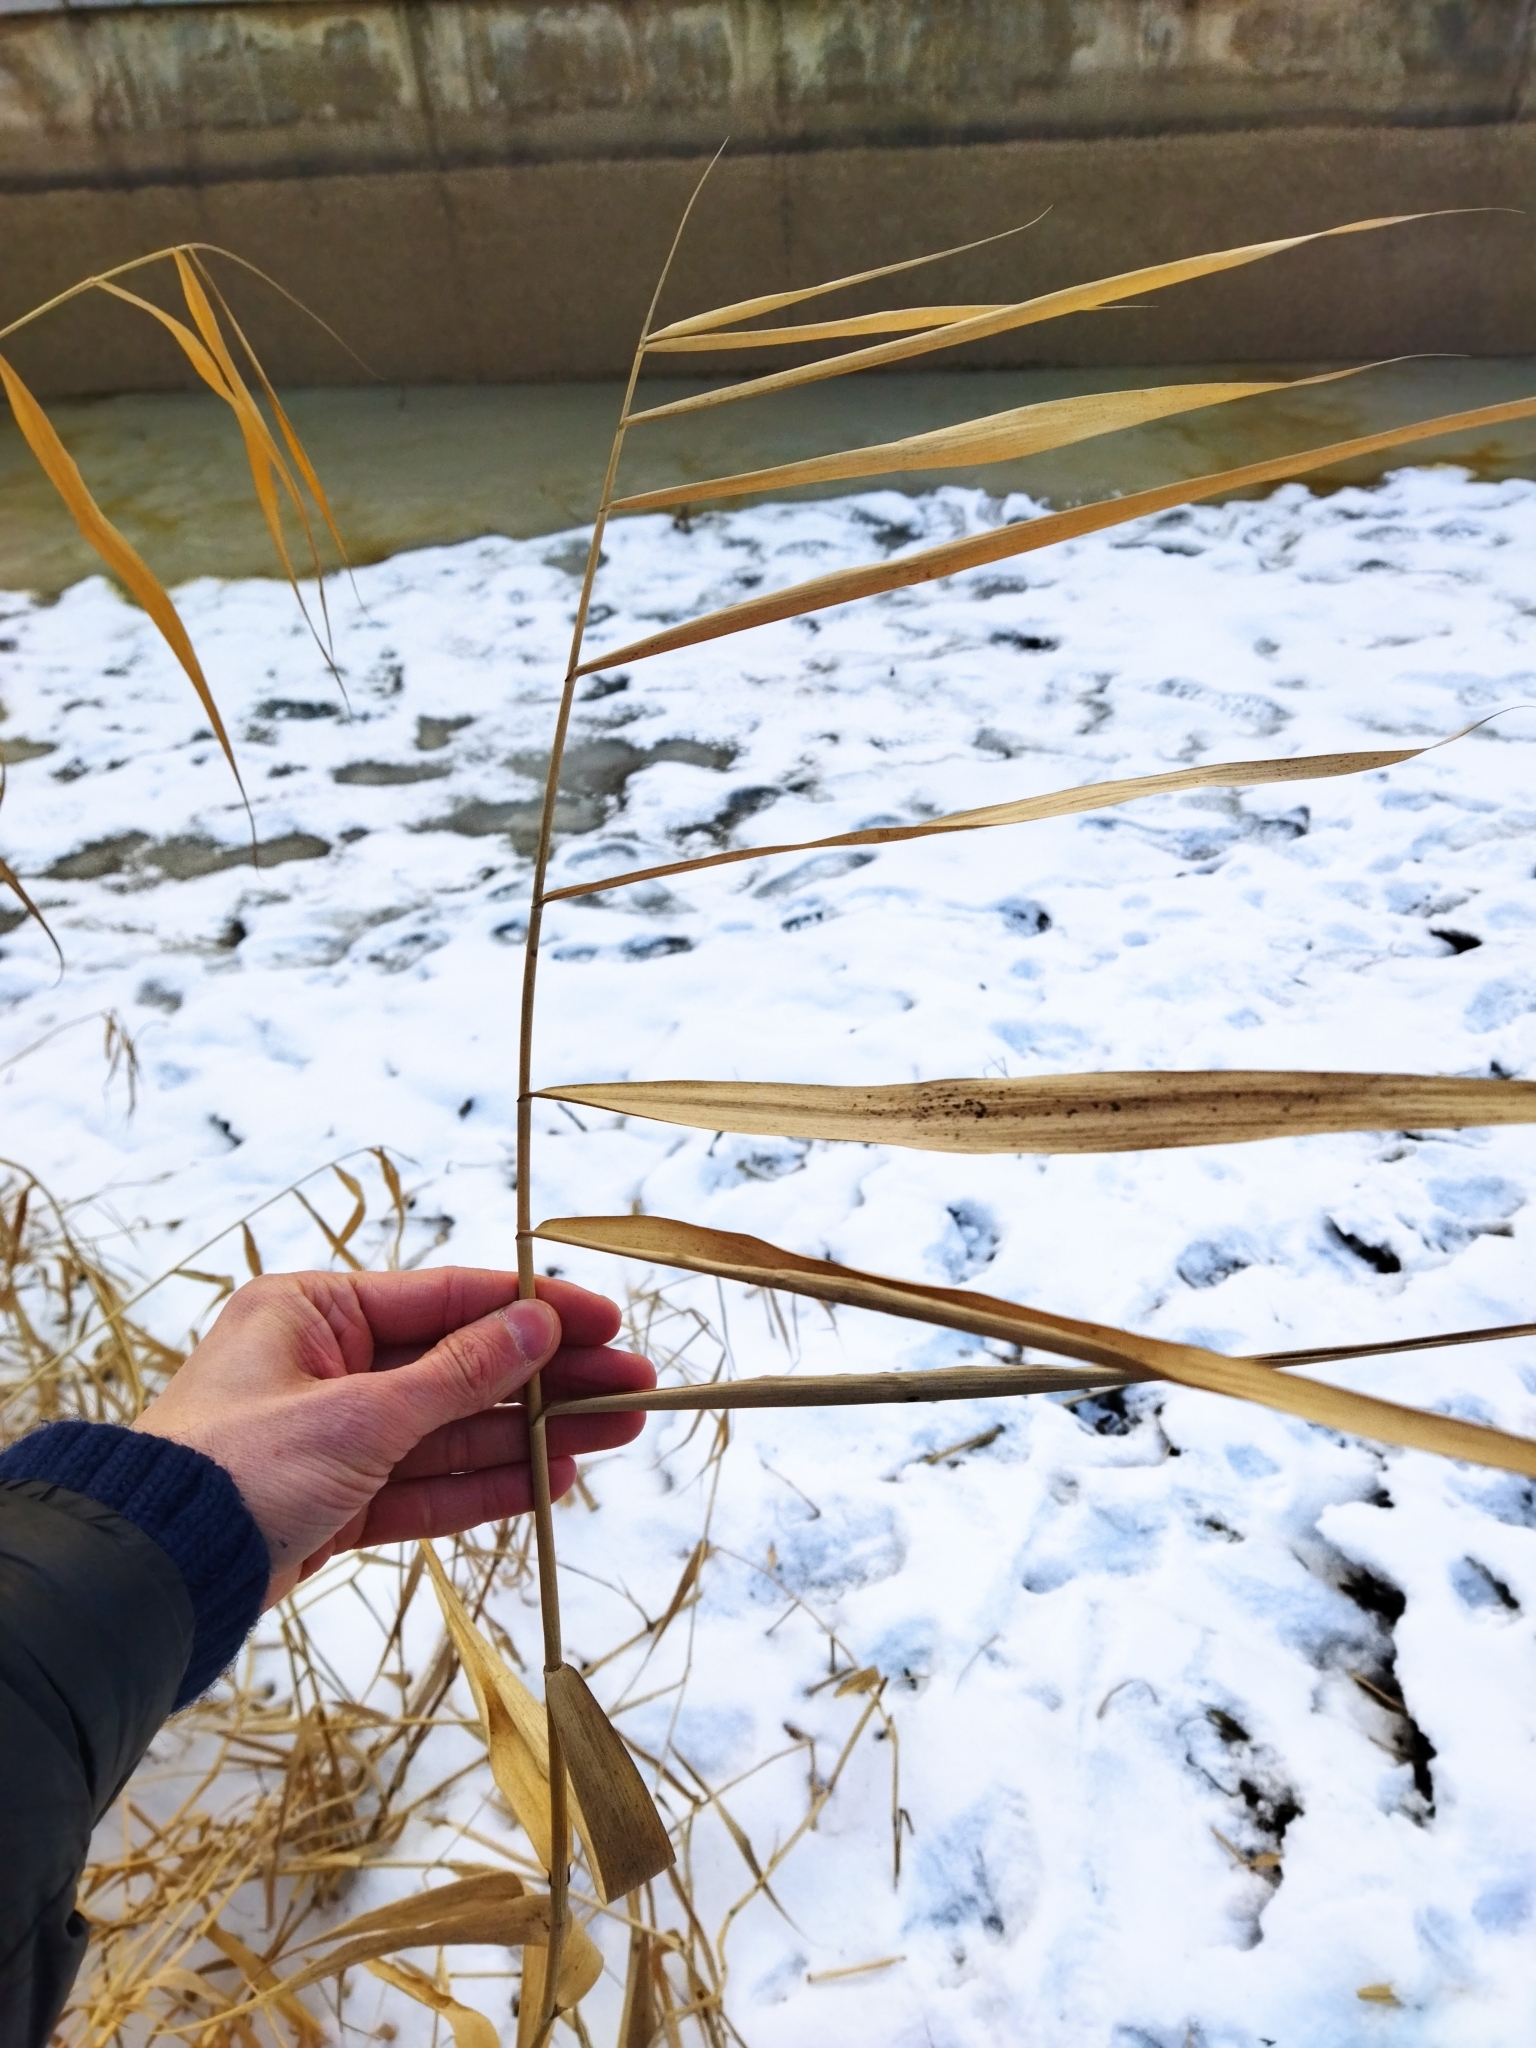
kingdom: Plantae
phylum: Tracheophyta
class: Liliopsida
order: Poales
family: Poaceae
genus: Phragmites
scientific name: Phragmites australis
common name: Common reed
